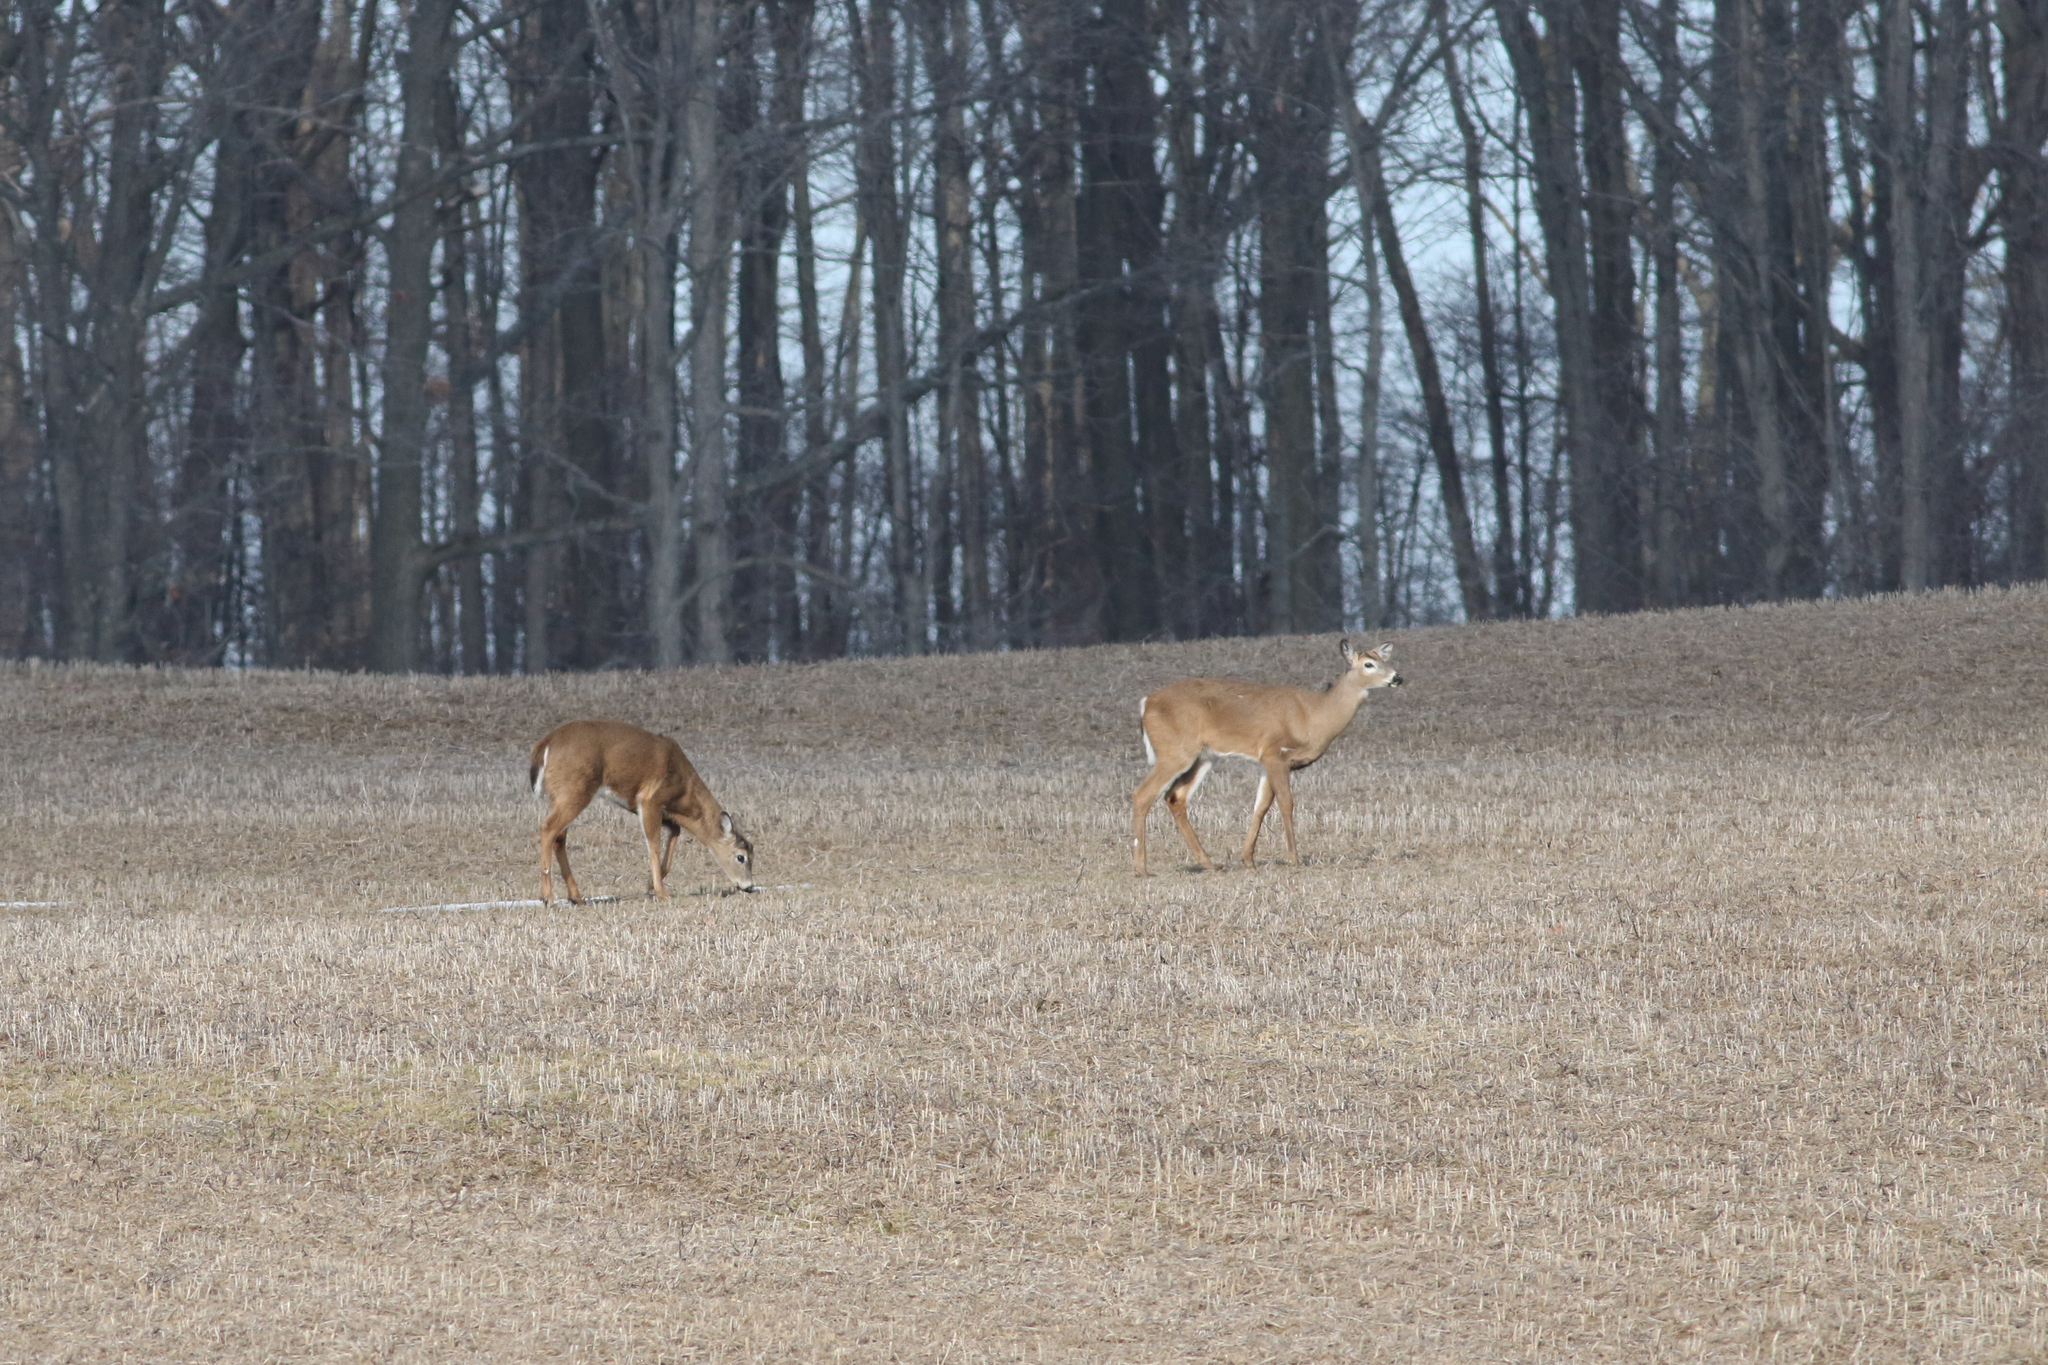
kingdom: Animalia
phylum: Chordata
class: Mammalia
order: Artiodactyla
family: Cervidae
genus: Odocoileus
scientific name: Odocoileus virginianus
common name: White-tailed deer
